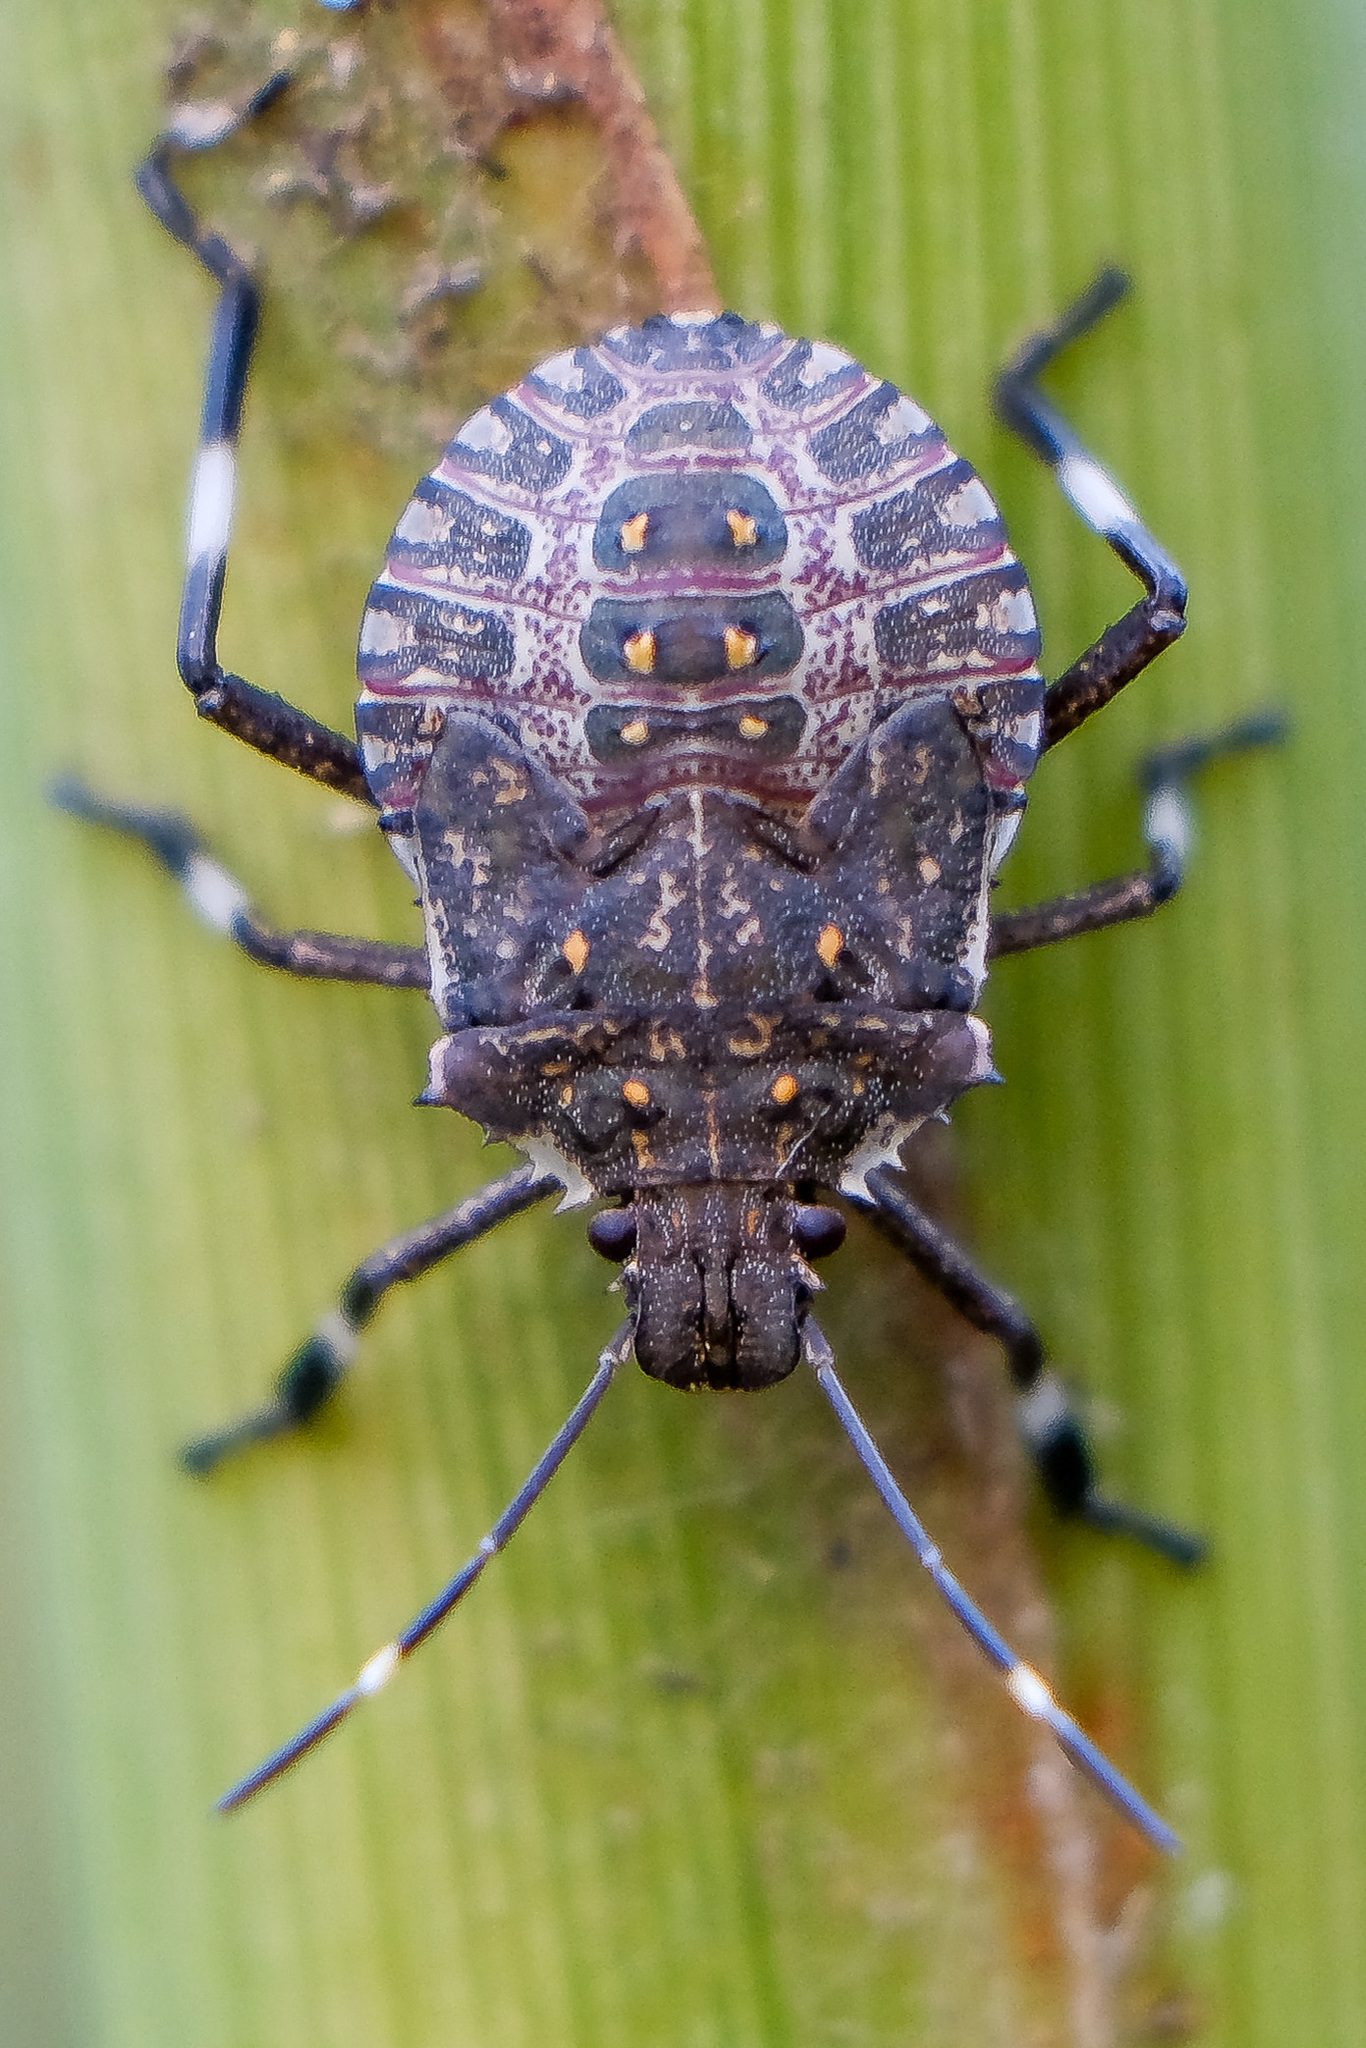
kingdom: Animalia
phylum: Arthropoda
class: Insecta
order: Hemiptera
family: Pentatomidae
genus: Halyomorpha
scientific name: Halyomorpha halys
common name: Brown marmorated stink bug
